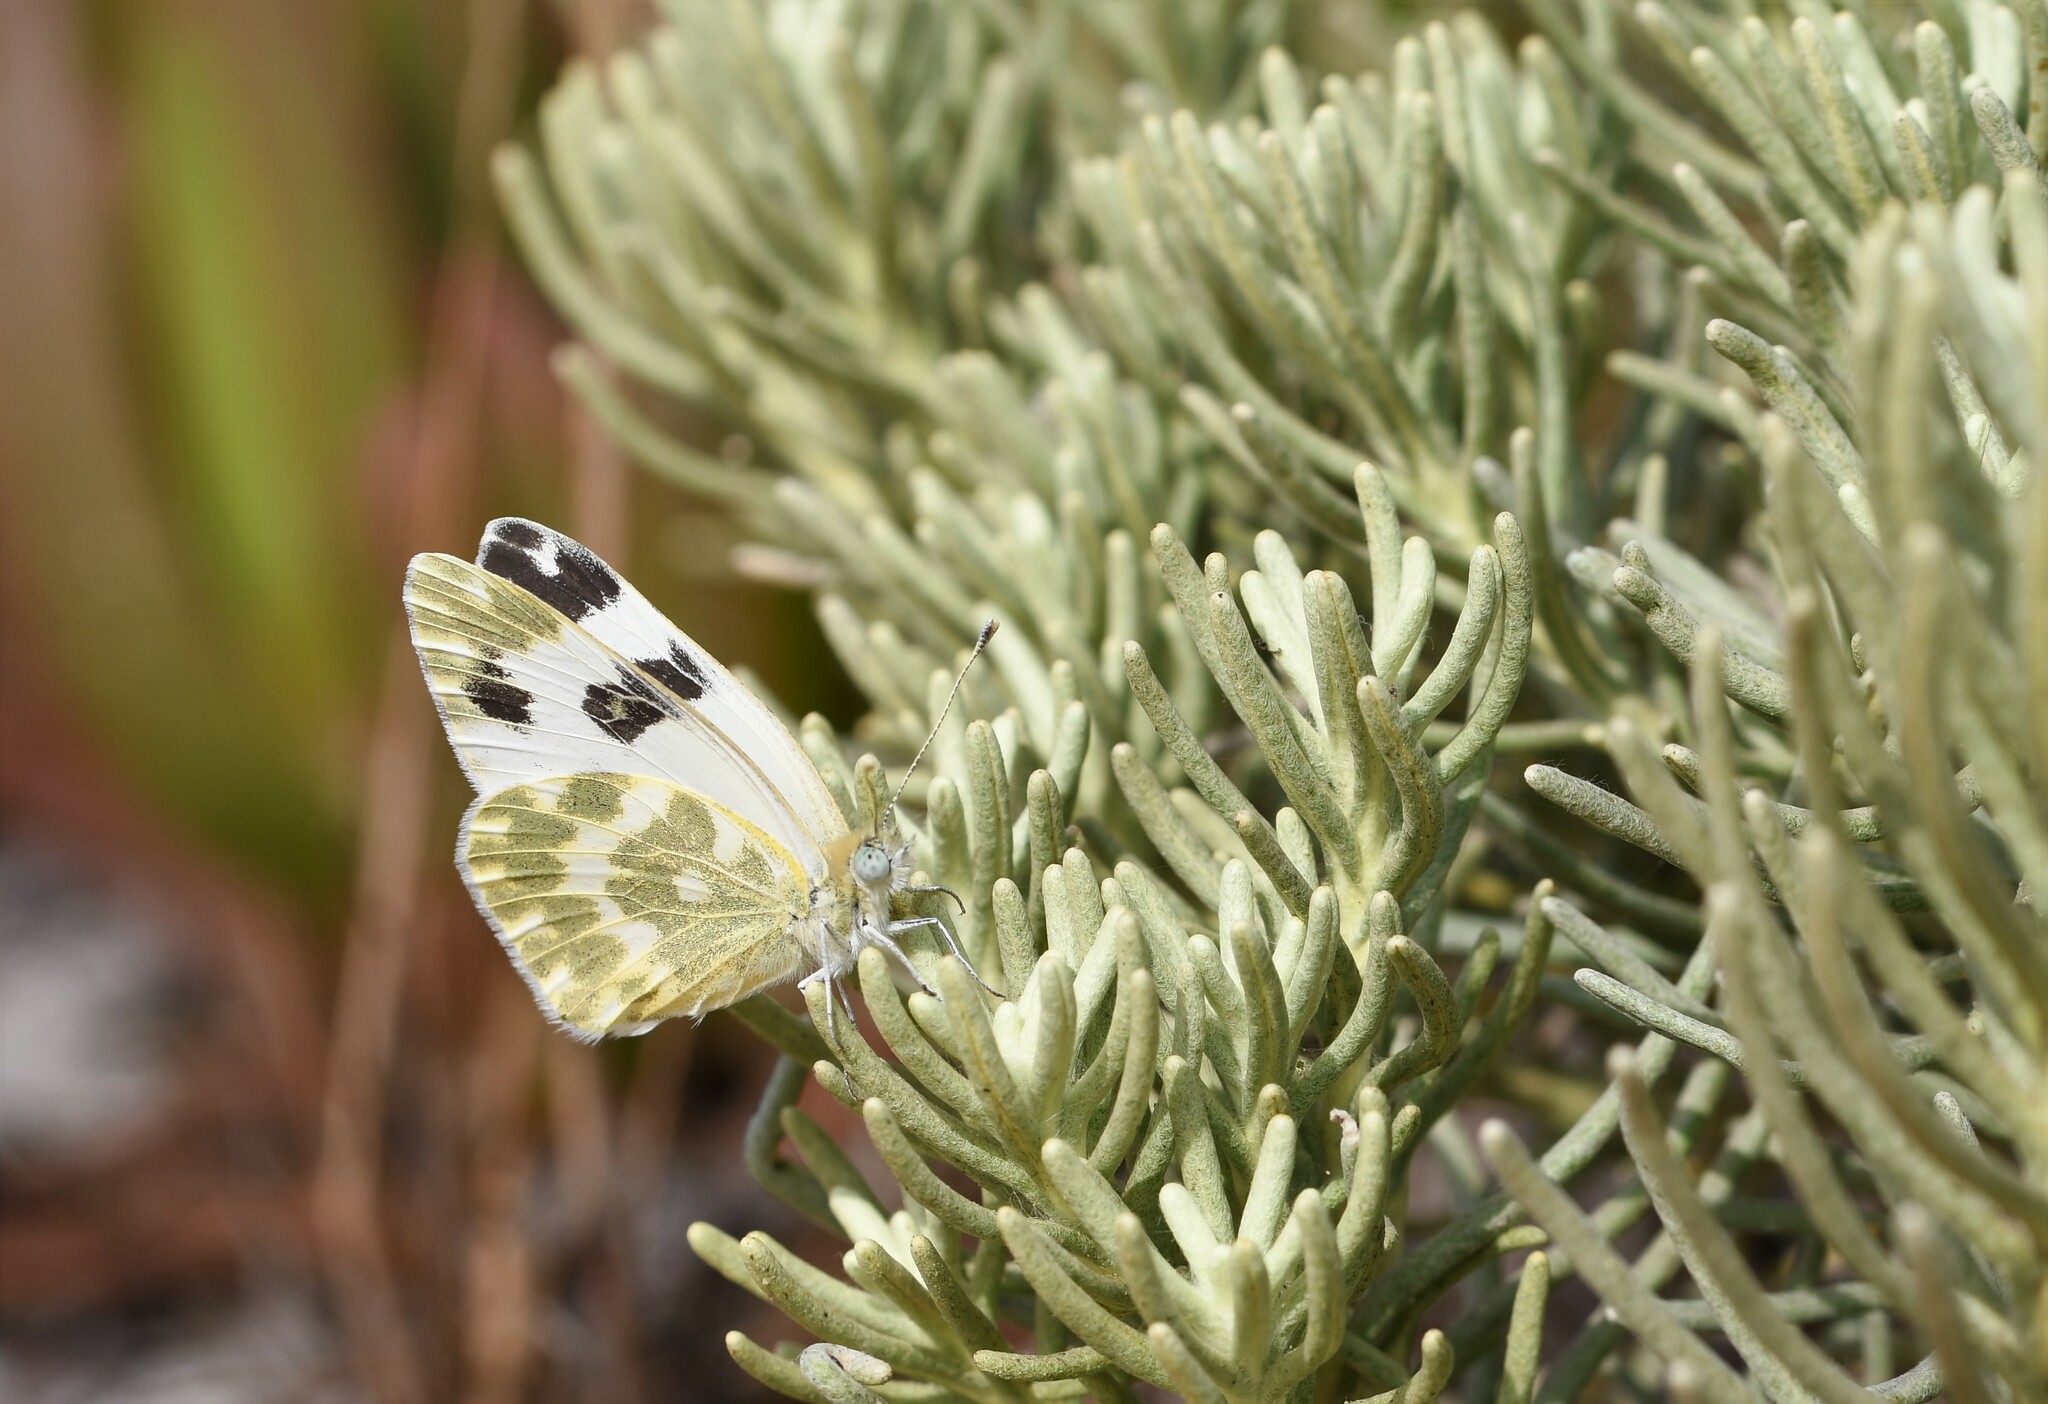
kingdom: Animalia
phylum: Arthropoda
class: Insecta
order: Lepidoptera
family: Pieridae
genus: Pontia
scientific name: Pontia daplidice
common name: Bath white
